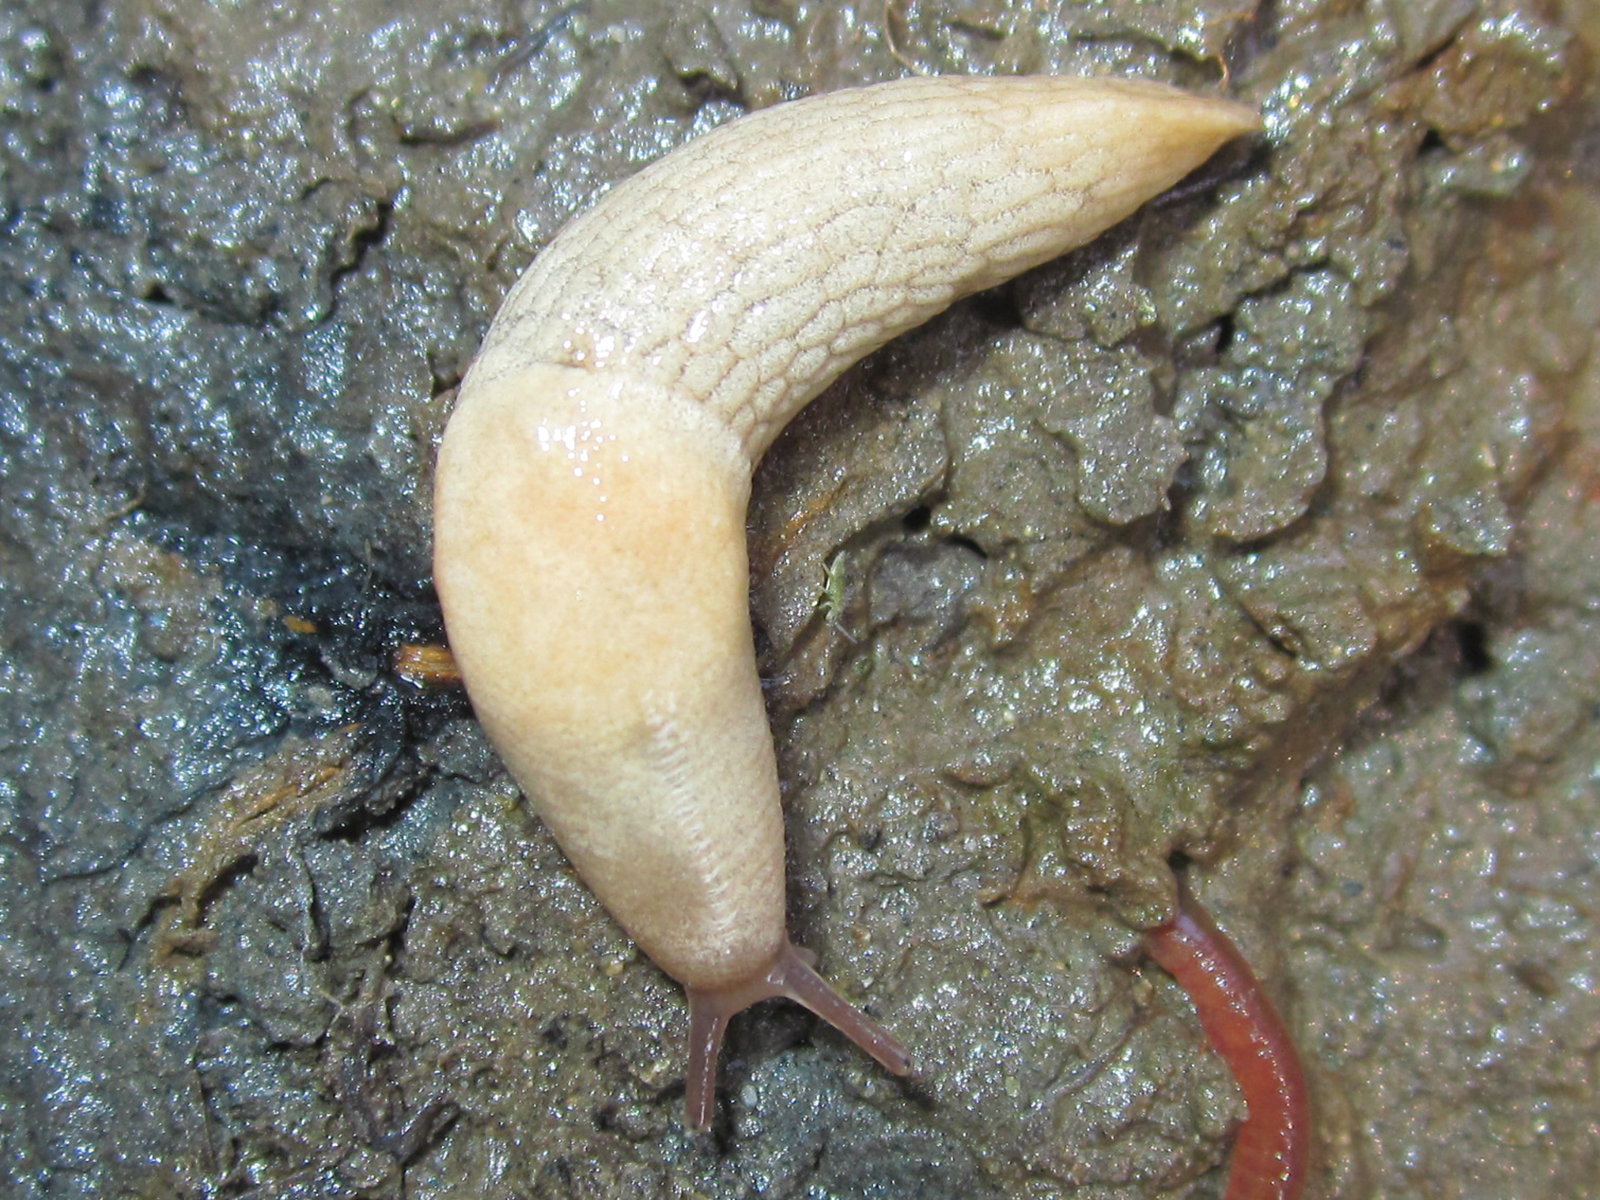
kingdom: Animalia
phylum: Mollusca
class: Gastropoda
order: Stylommatophora
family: Agriolimacidae
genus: Deroceras
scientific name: Deroceras reticulatum
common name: Gray field slug
